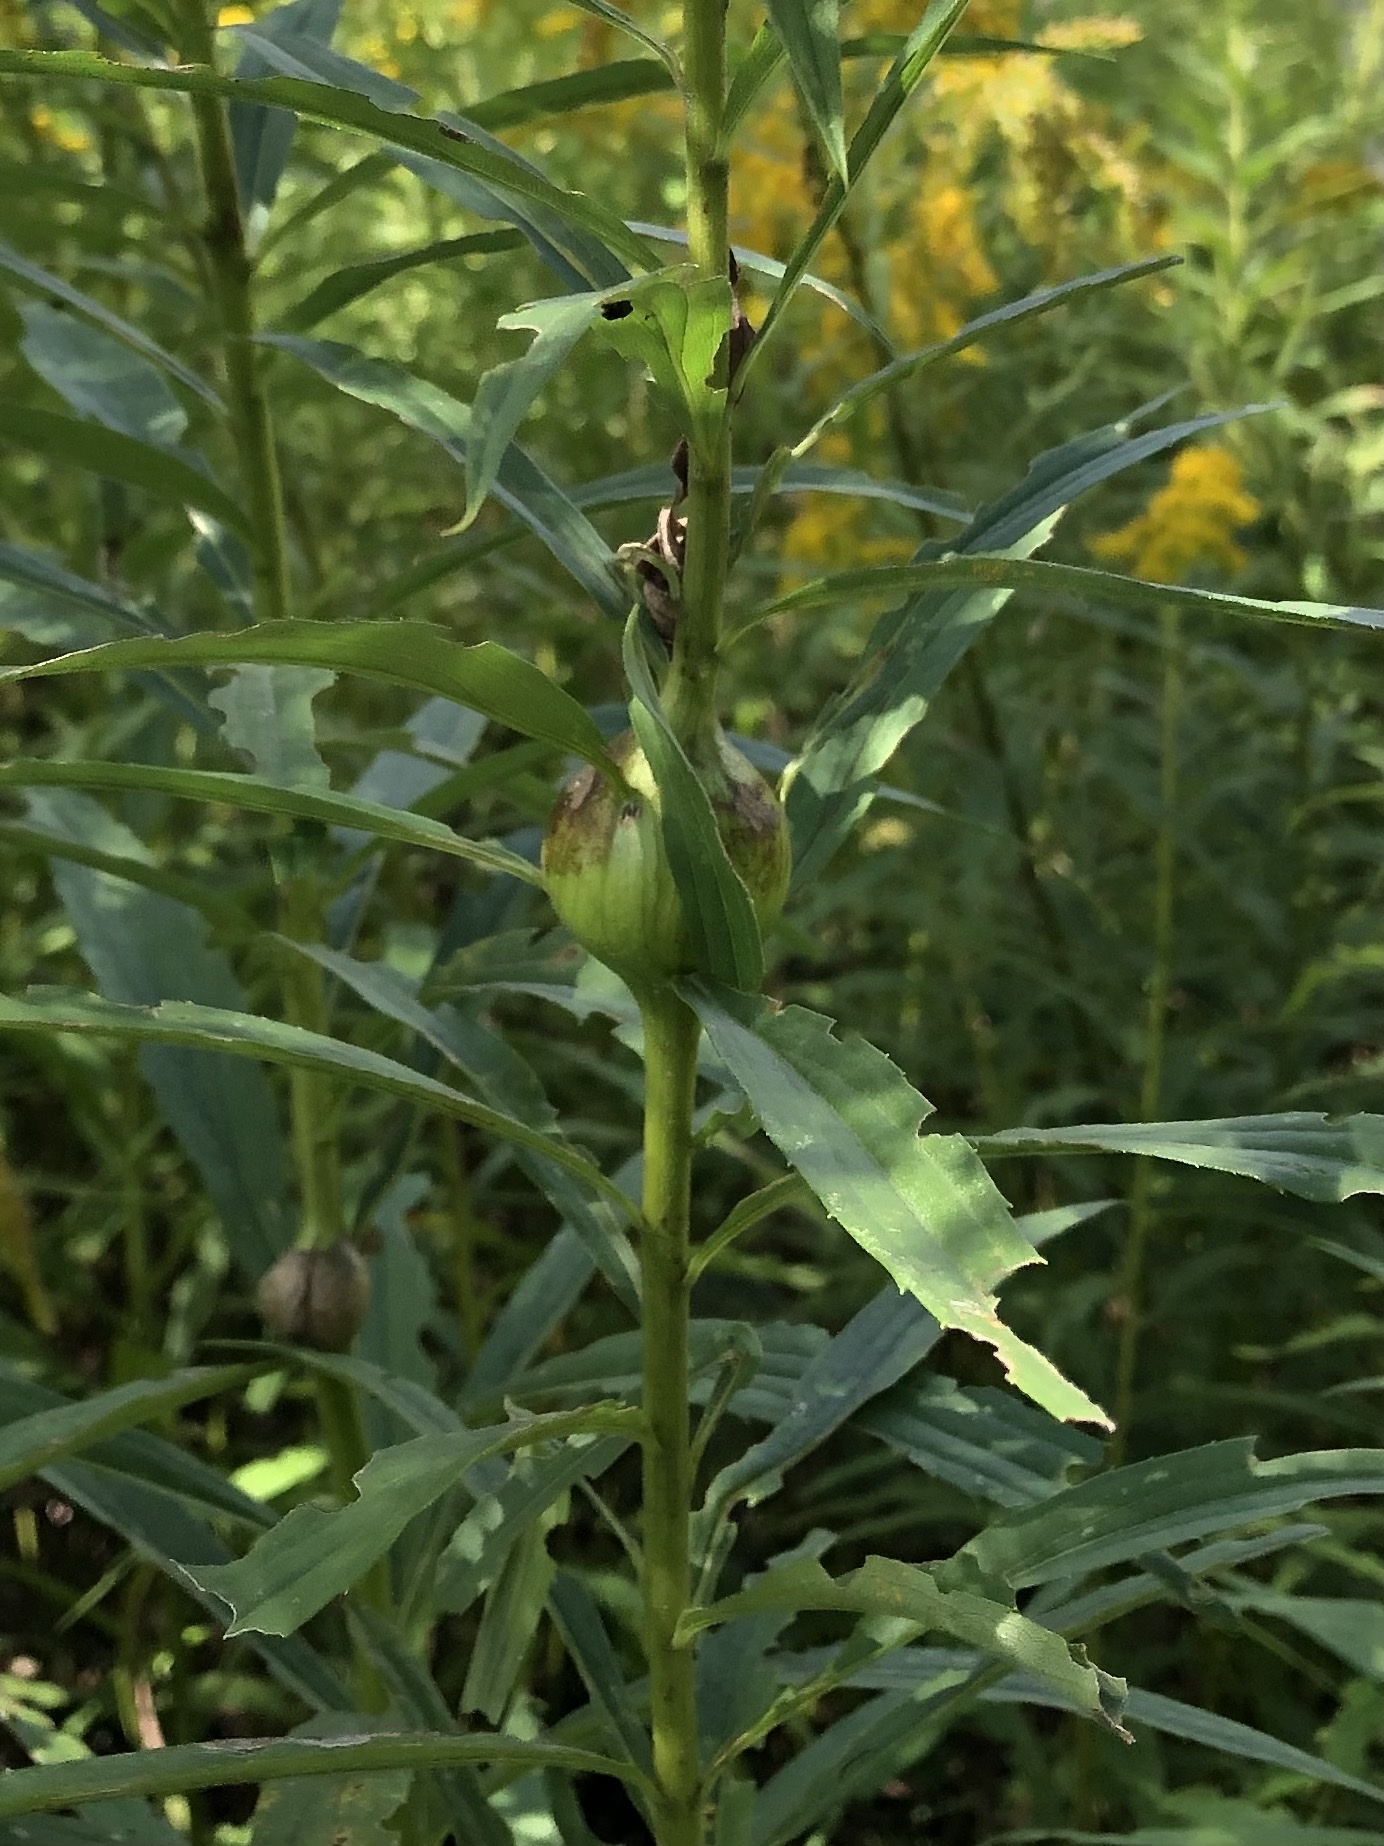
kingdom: Animalia
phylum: Arthropoda
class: Insecta
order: Diptera
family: Tephritidae
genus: Eurosta
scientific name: Eurosta solidaginis
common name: Goldenrod gall fly
